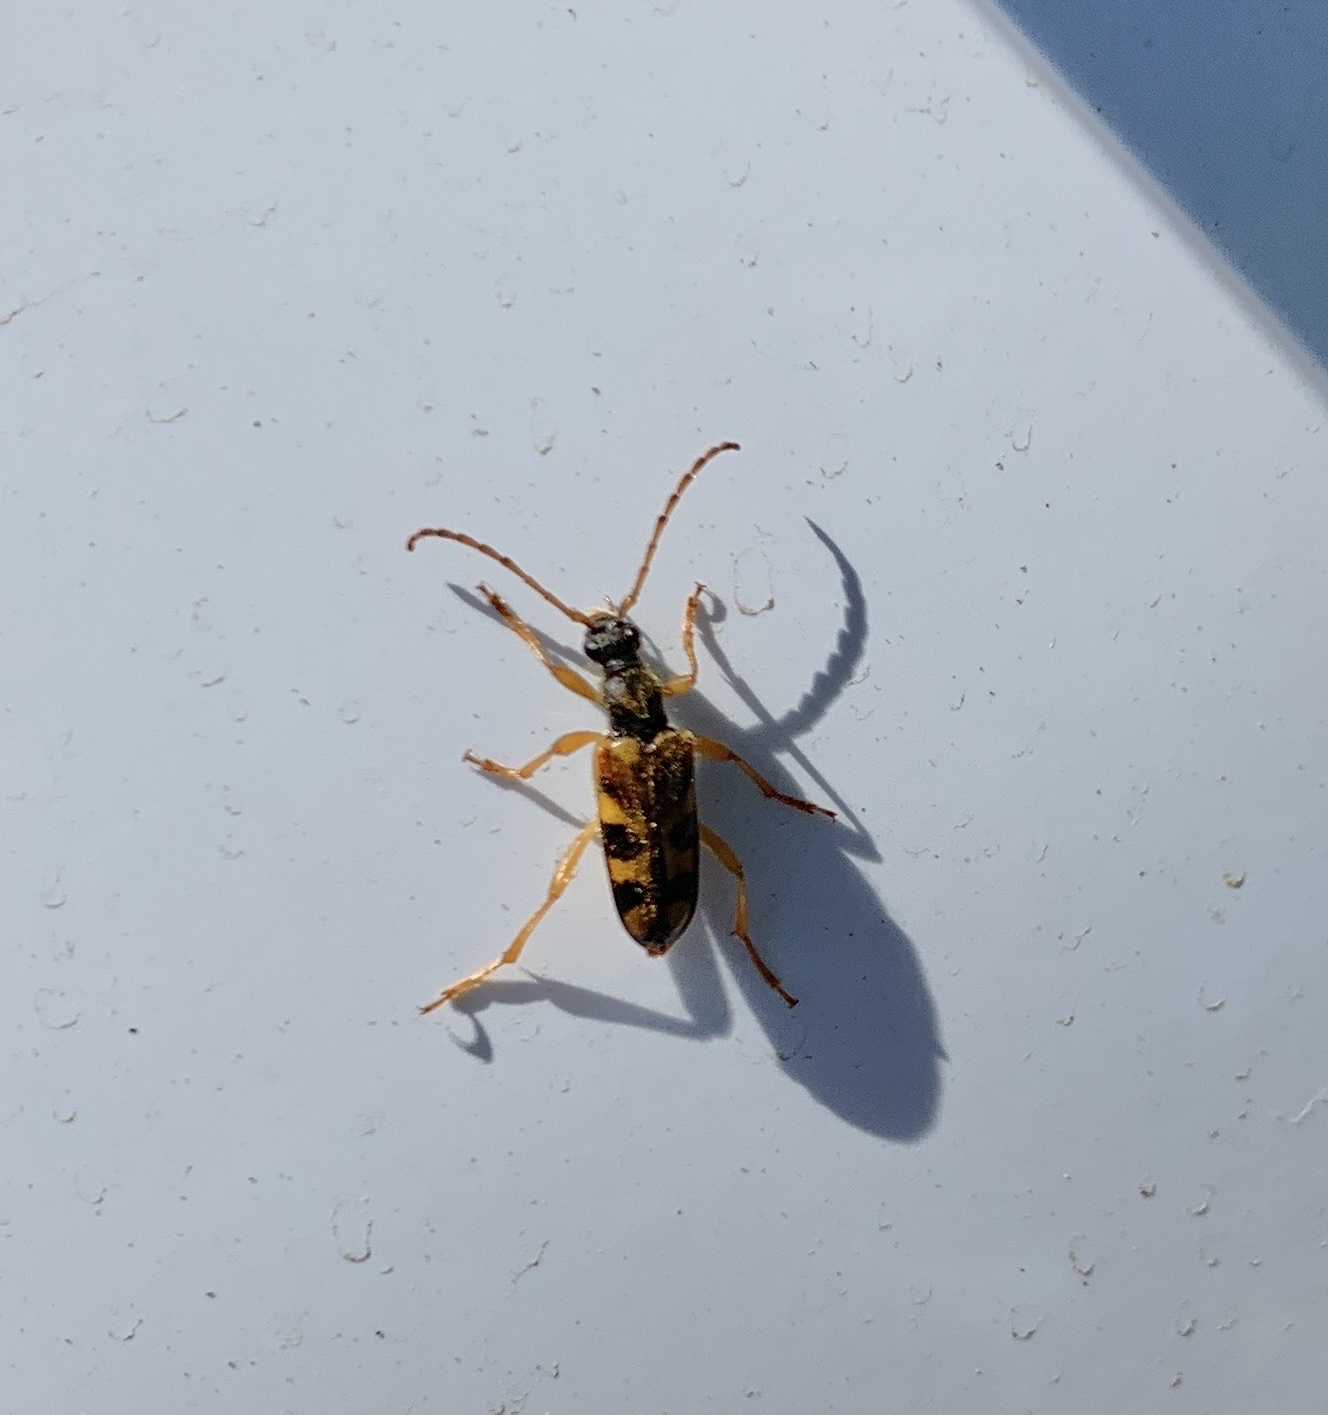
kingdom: Animalia
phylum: Arthropoda
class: Insecta
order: Coleoptera
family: Cerambycidae
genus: Xestoleptura
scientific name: Xestoleptura crassipes
